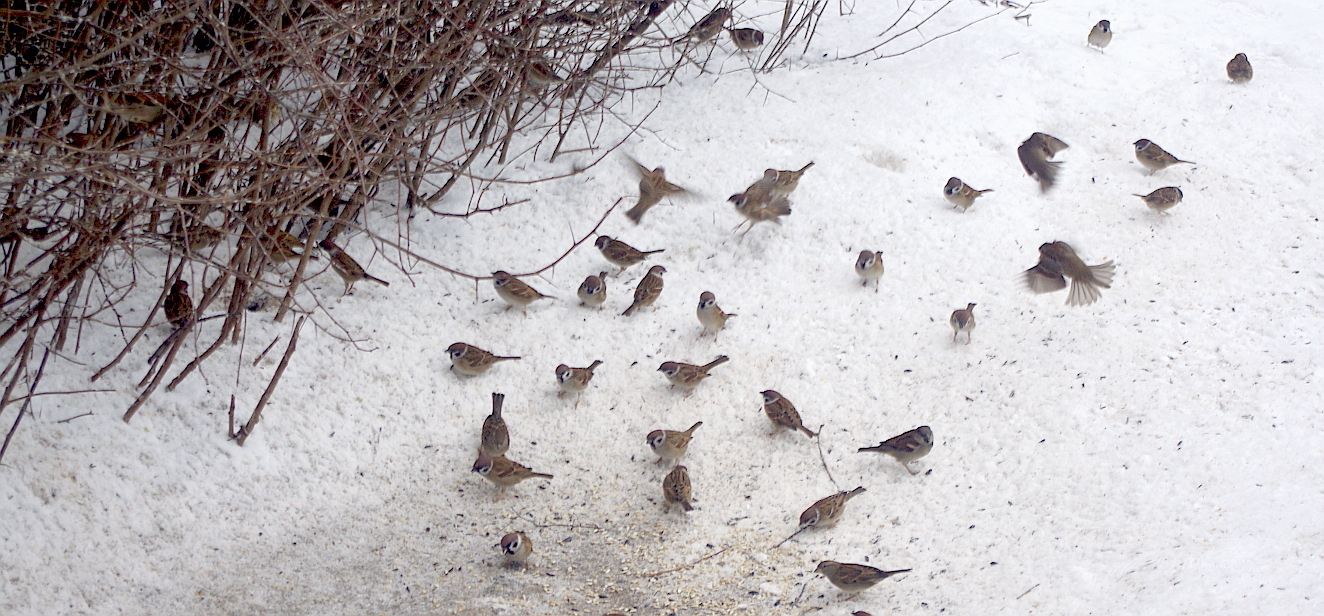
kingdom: Animalia
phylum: Chordata
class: Aves
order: Passeriformes
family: Passeridae
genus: Passer
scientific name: Passer montanus
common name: Eurasian tree sparrow
